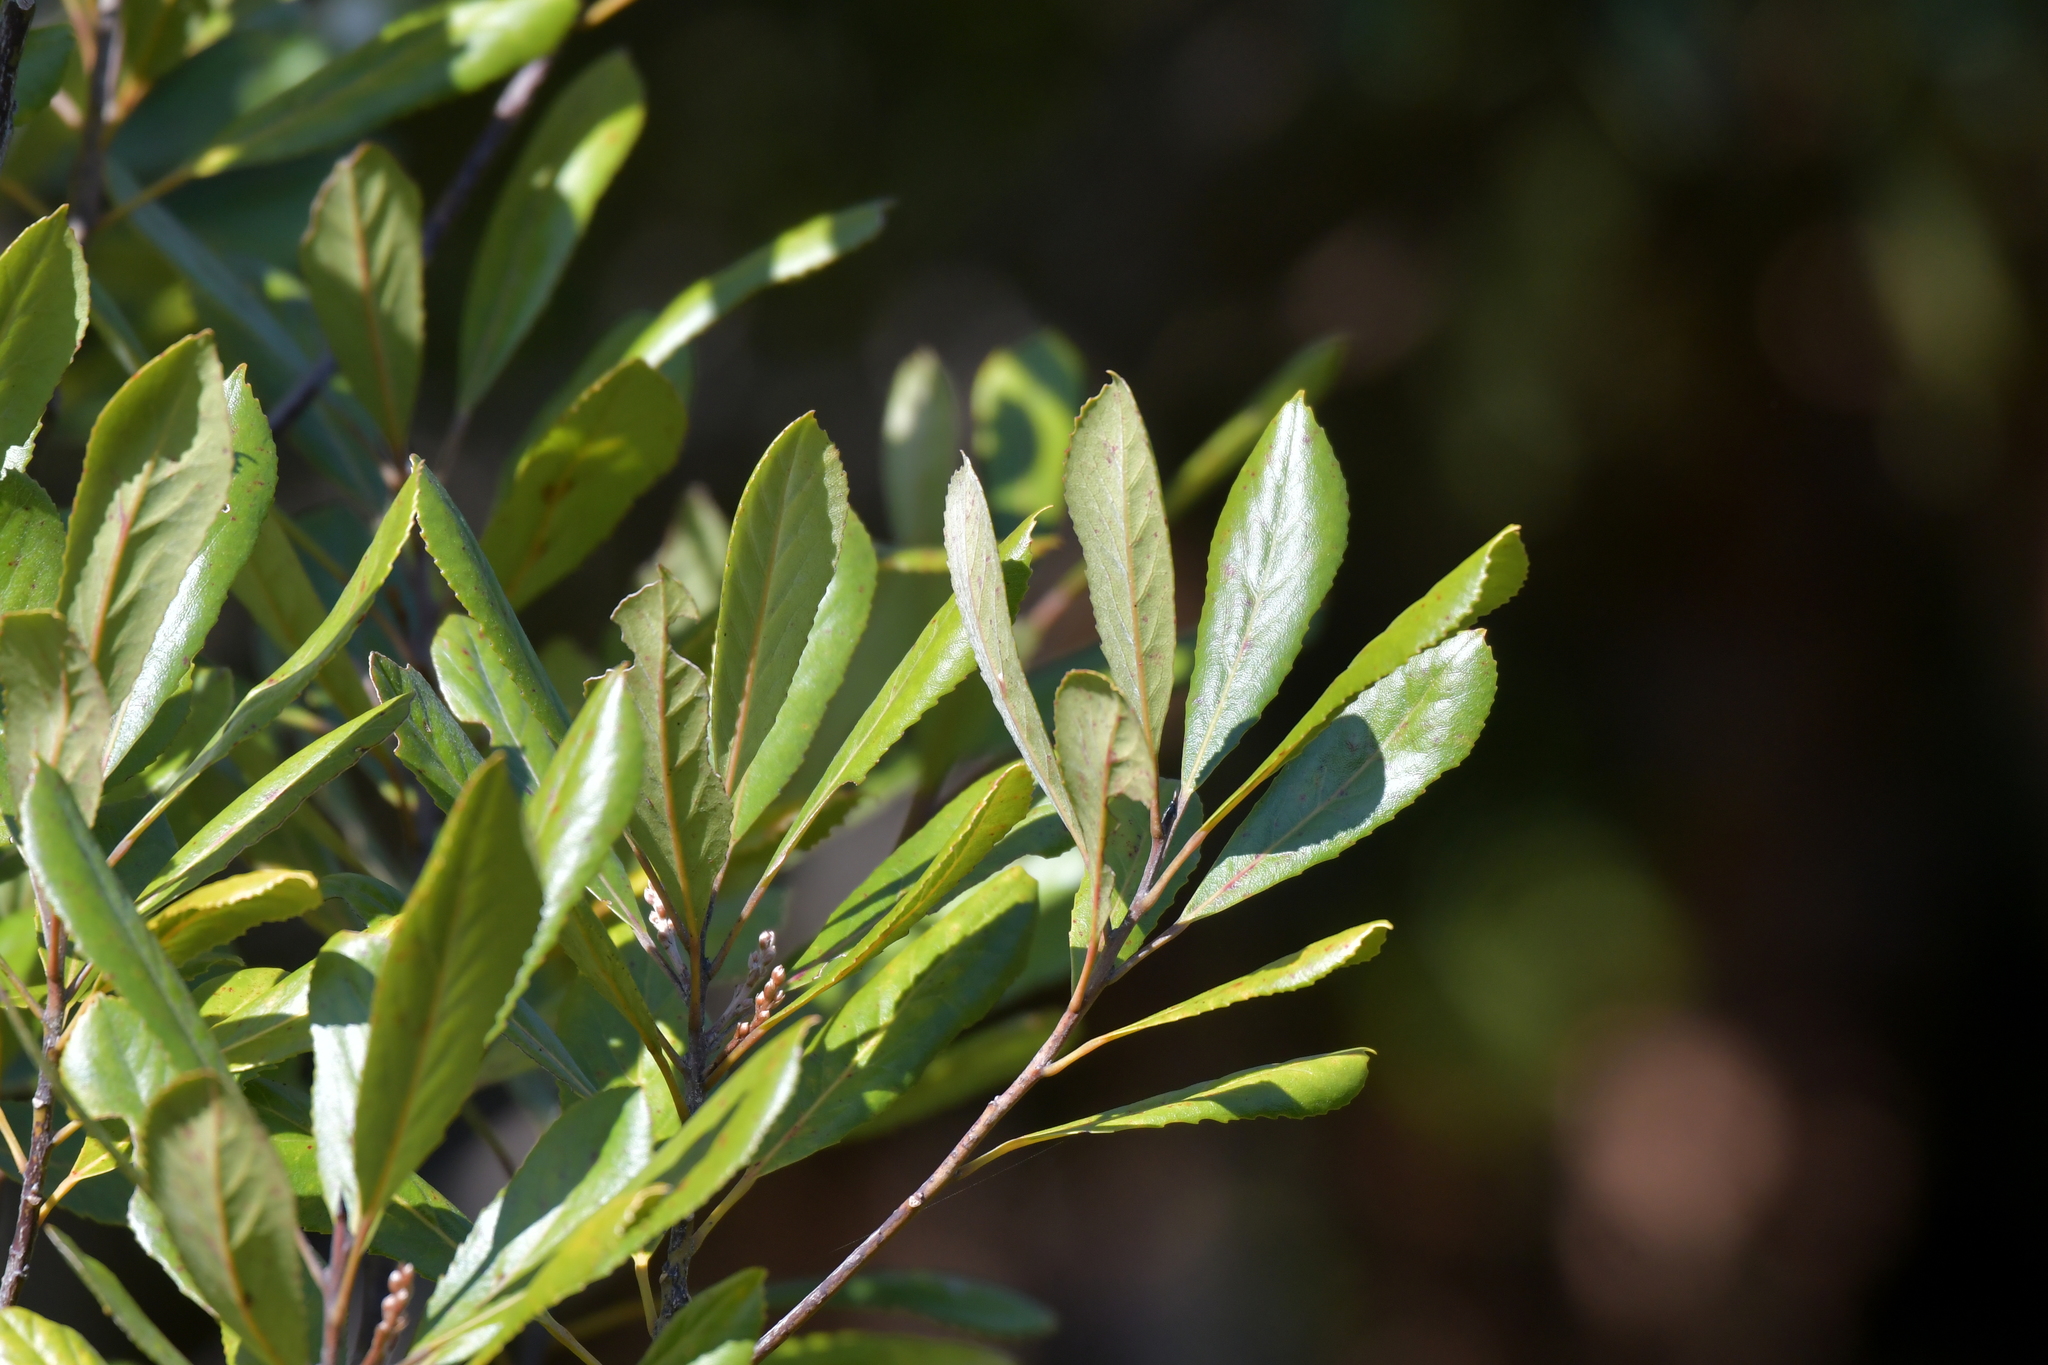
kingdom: Plantae
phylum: Tracheophyta
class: Magnoliopsida
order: Oxalidales
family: Elaeocarpaceae
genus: Elaeocarpus
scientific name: Elaeocarpus dentatus
